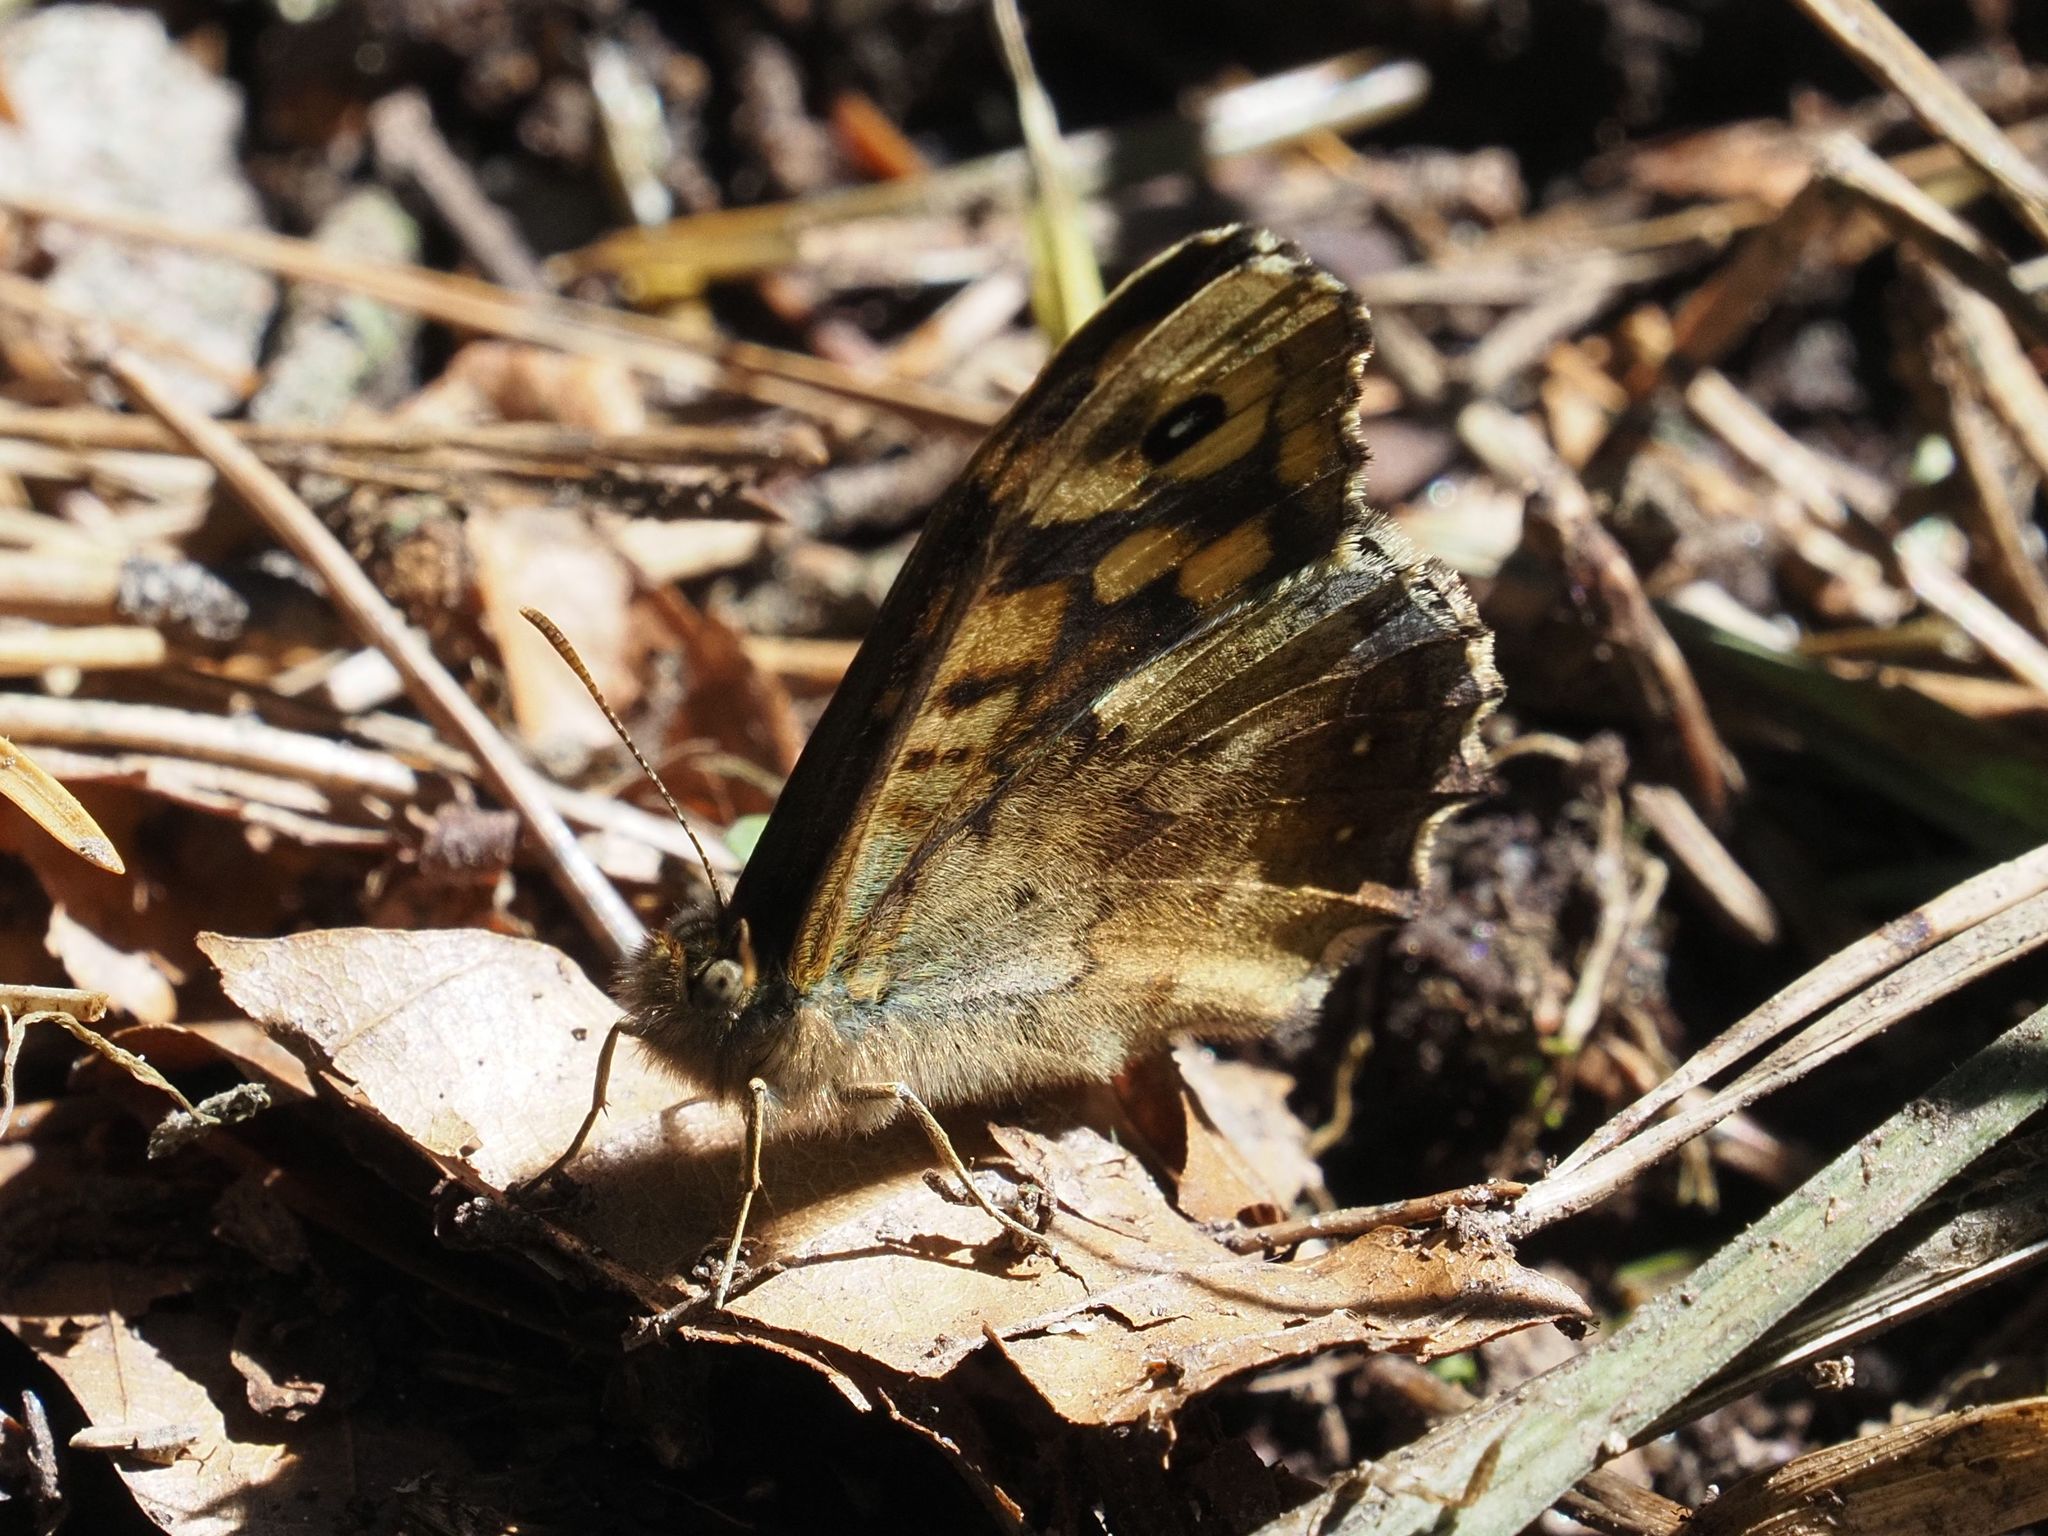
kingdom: Animalia
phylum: Arthropoda
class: Insecta
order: Lepidoptera
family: Nymphalidae
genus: Pararge
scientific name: Pararge aegeria
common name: Speckled wood
